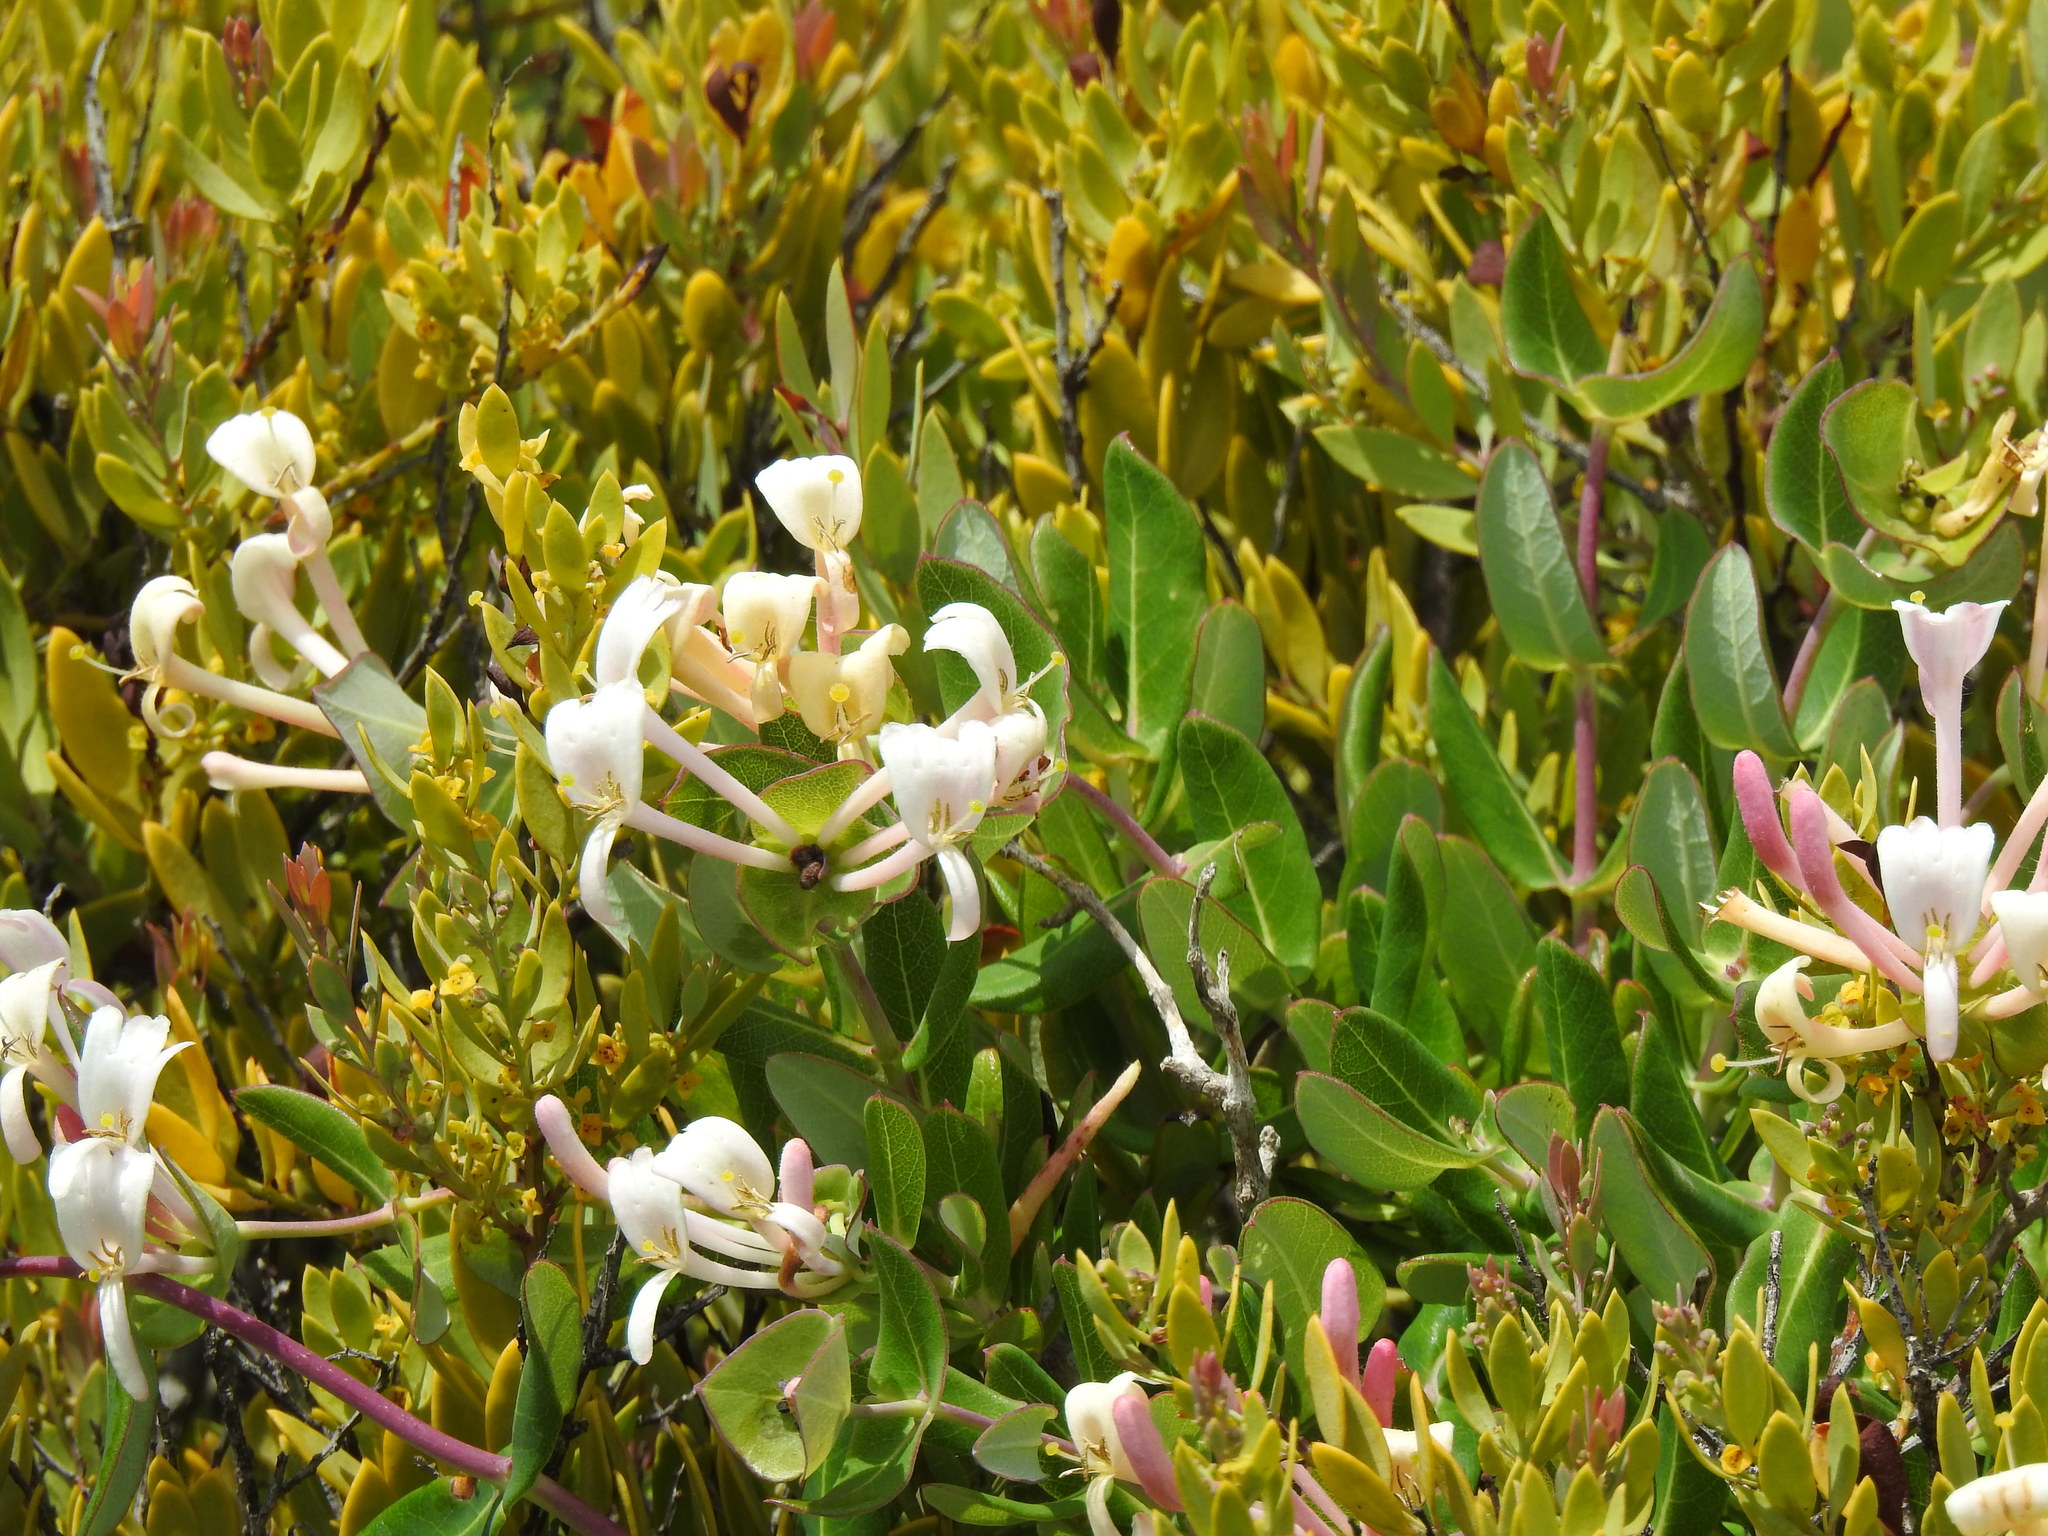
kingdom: Plantae
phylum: Tracheophyta
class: Magnoliopsida
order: Dipsacales
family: Caprifoliaceae
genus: Lonicera
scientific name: Lonicera implexa
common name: Minorca honeysuckle
